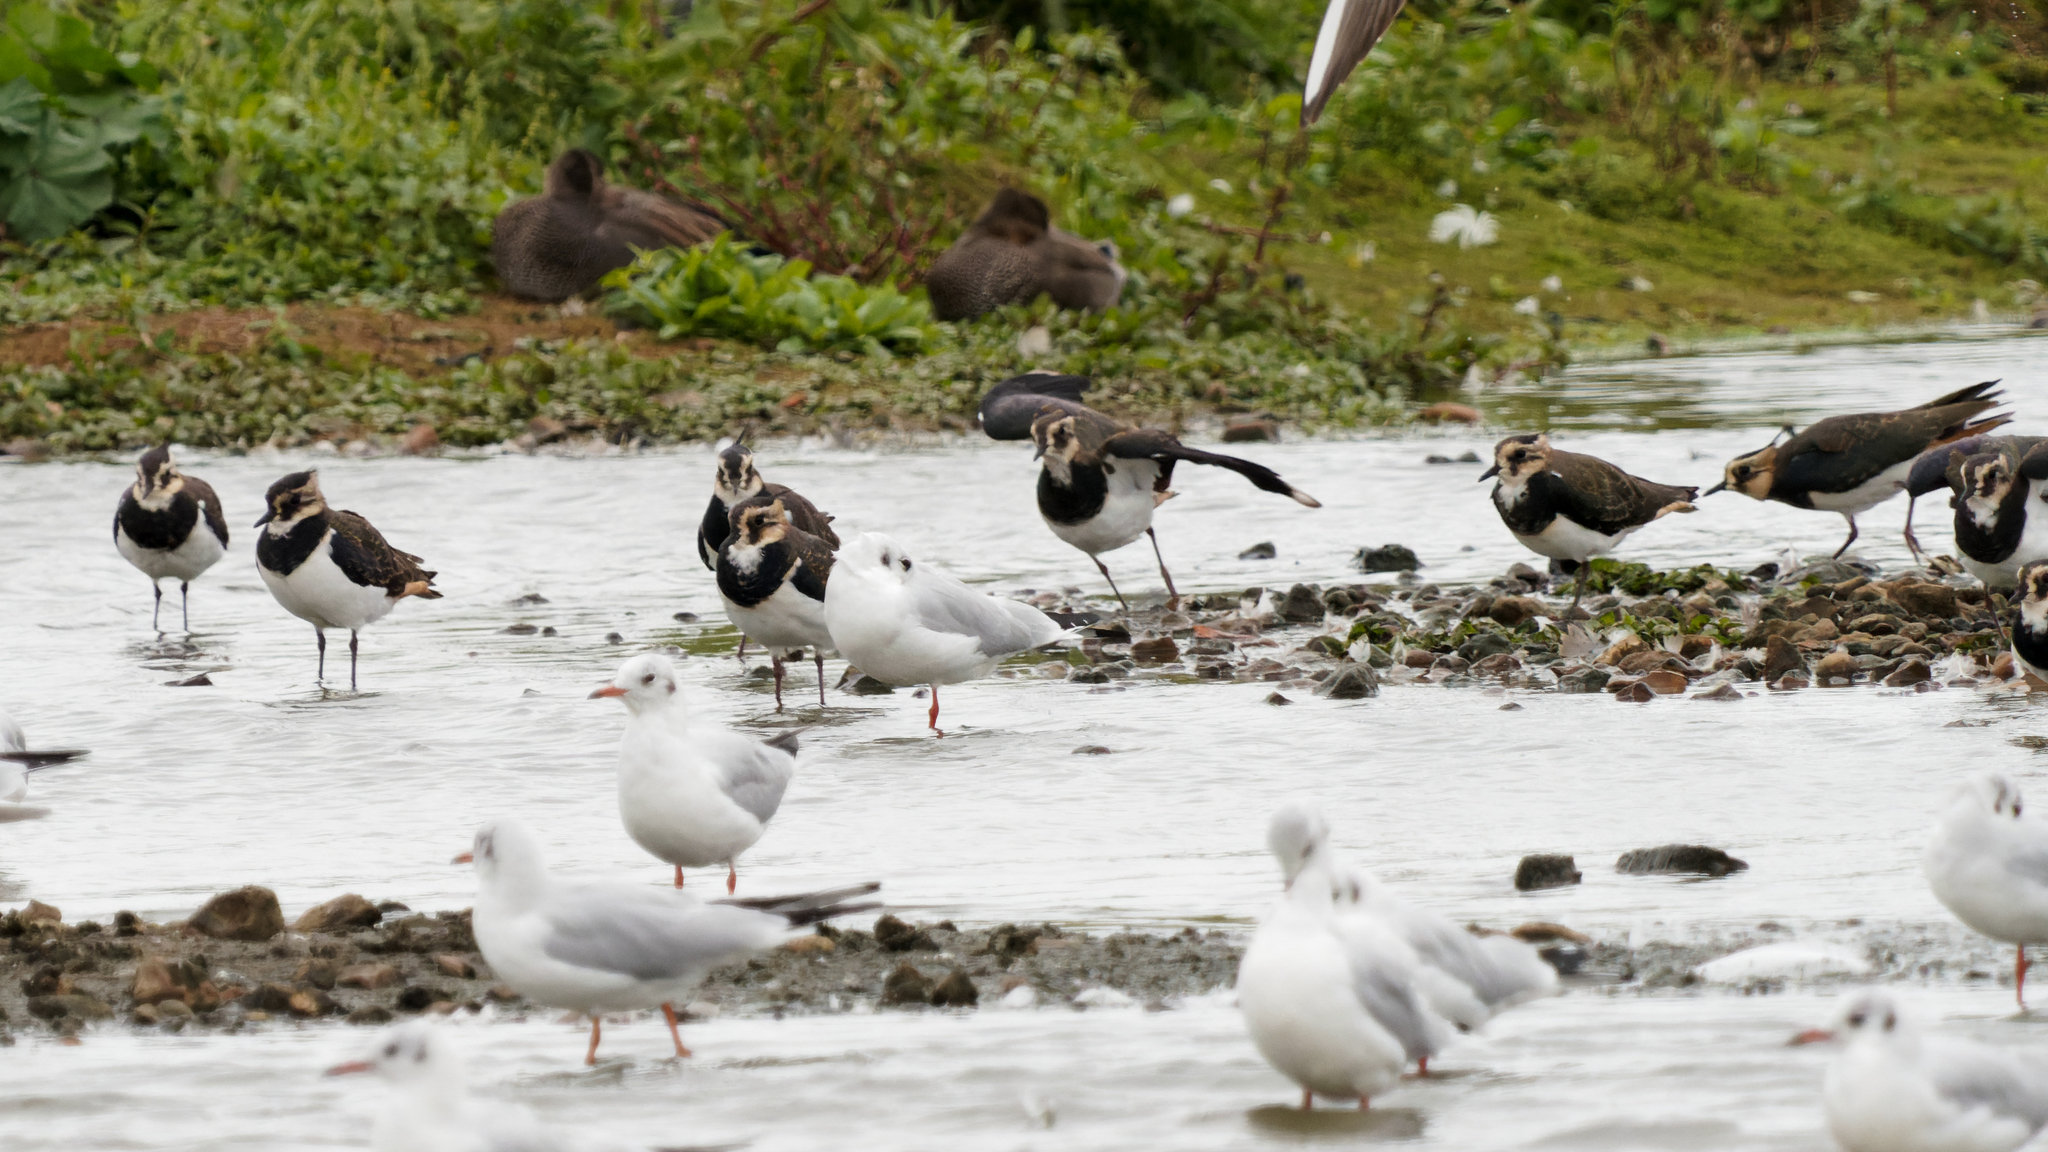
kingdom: Animalia
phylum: Chordata
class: Aves
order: Charadriiformes
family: Charadriidae
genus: Vanellus
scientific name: Vanellus vanellus
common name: Northern lapwing
